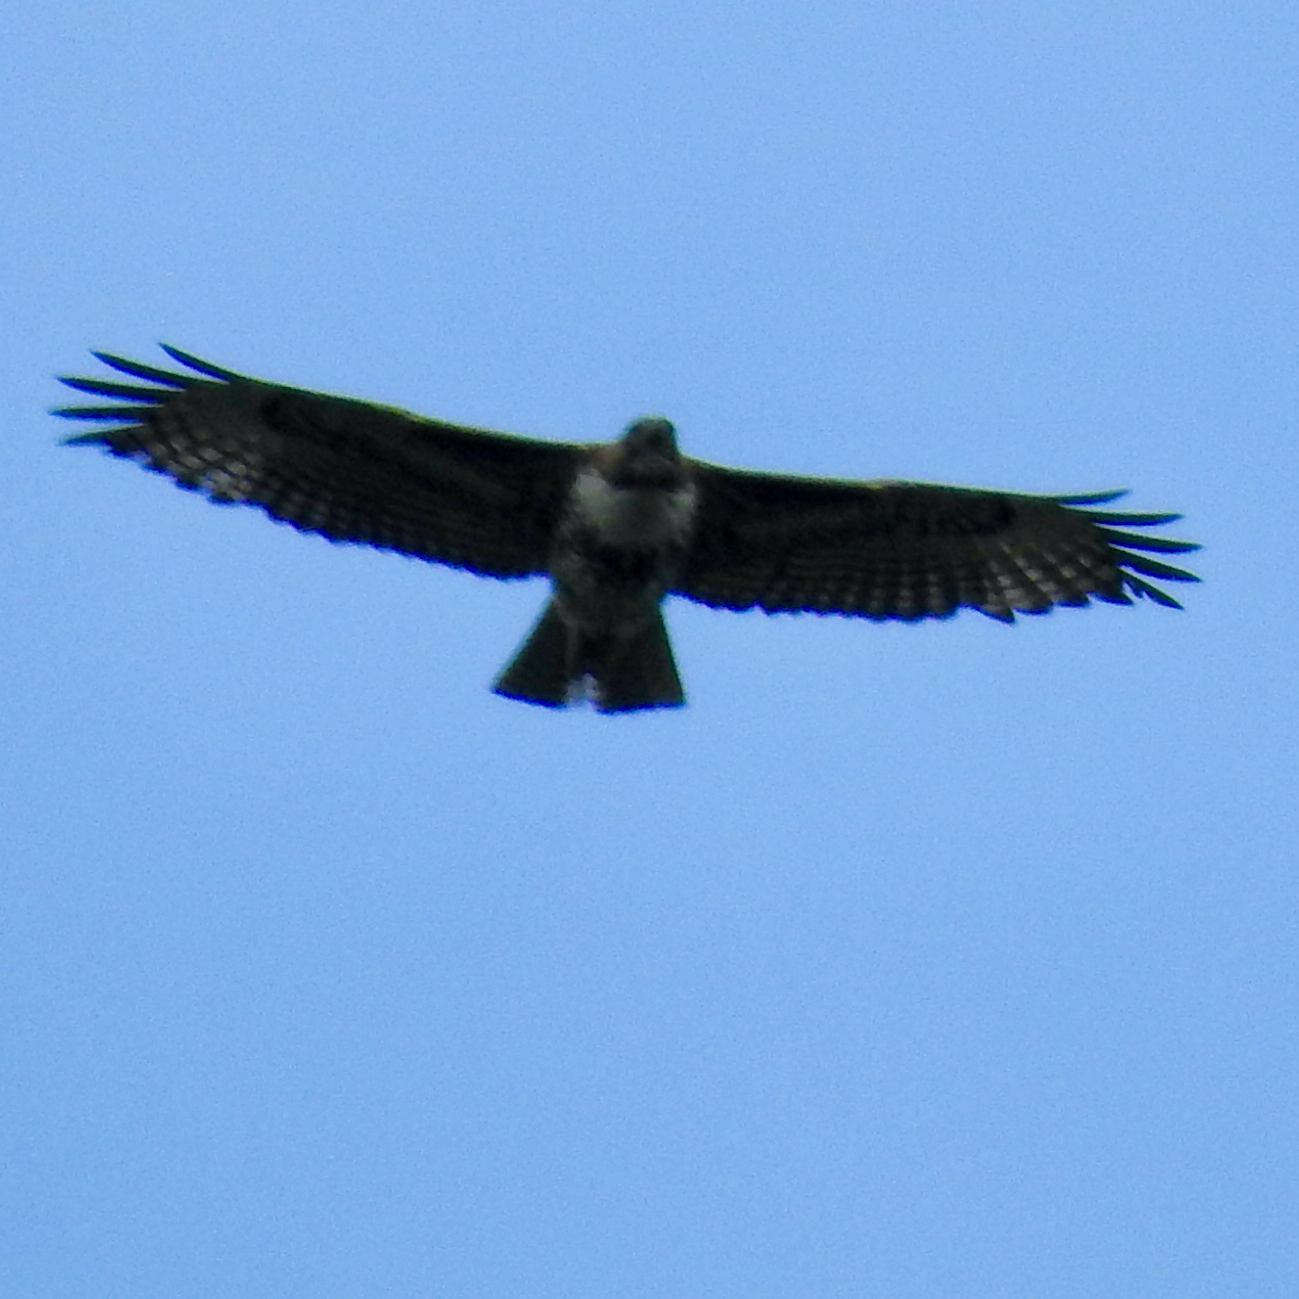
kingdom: Animalia
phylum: Chordata
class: Aves
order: Accipitriformes
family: Accipitridae
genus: Buteo
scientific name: Buteo jamaicensis
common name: Red-tailed hawk
